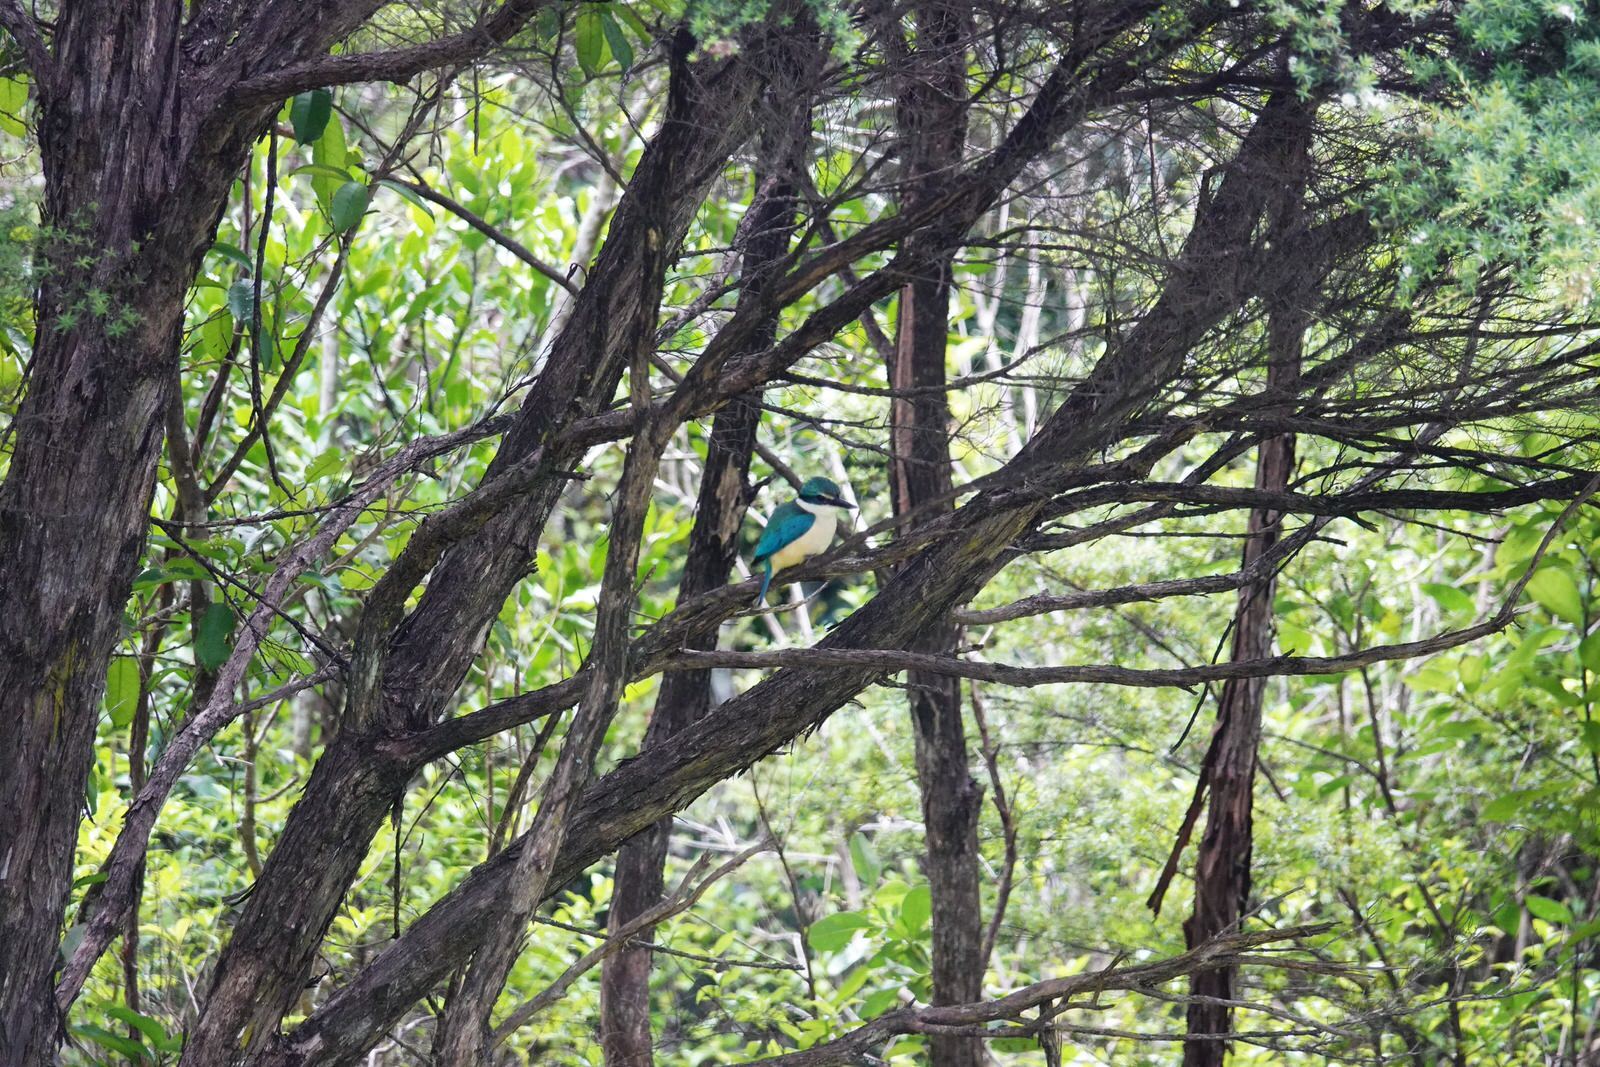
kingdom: Animalia
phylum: Chordata
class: Aves
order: Coraciiformes
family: Alcedinidae
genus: Todiramphus
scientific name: Todiramphus sanctus
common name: Sacred kingfisher
